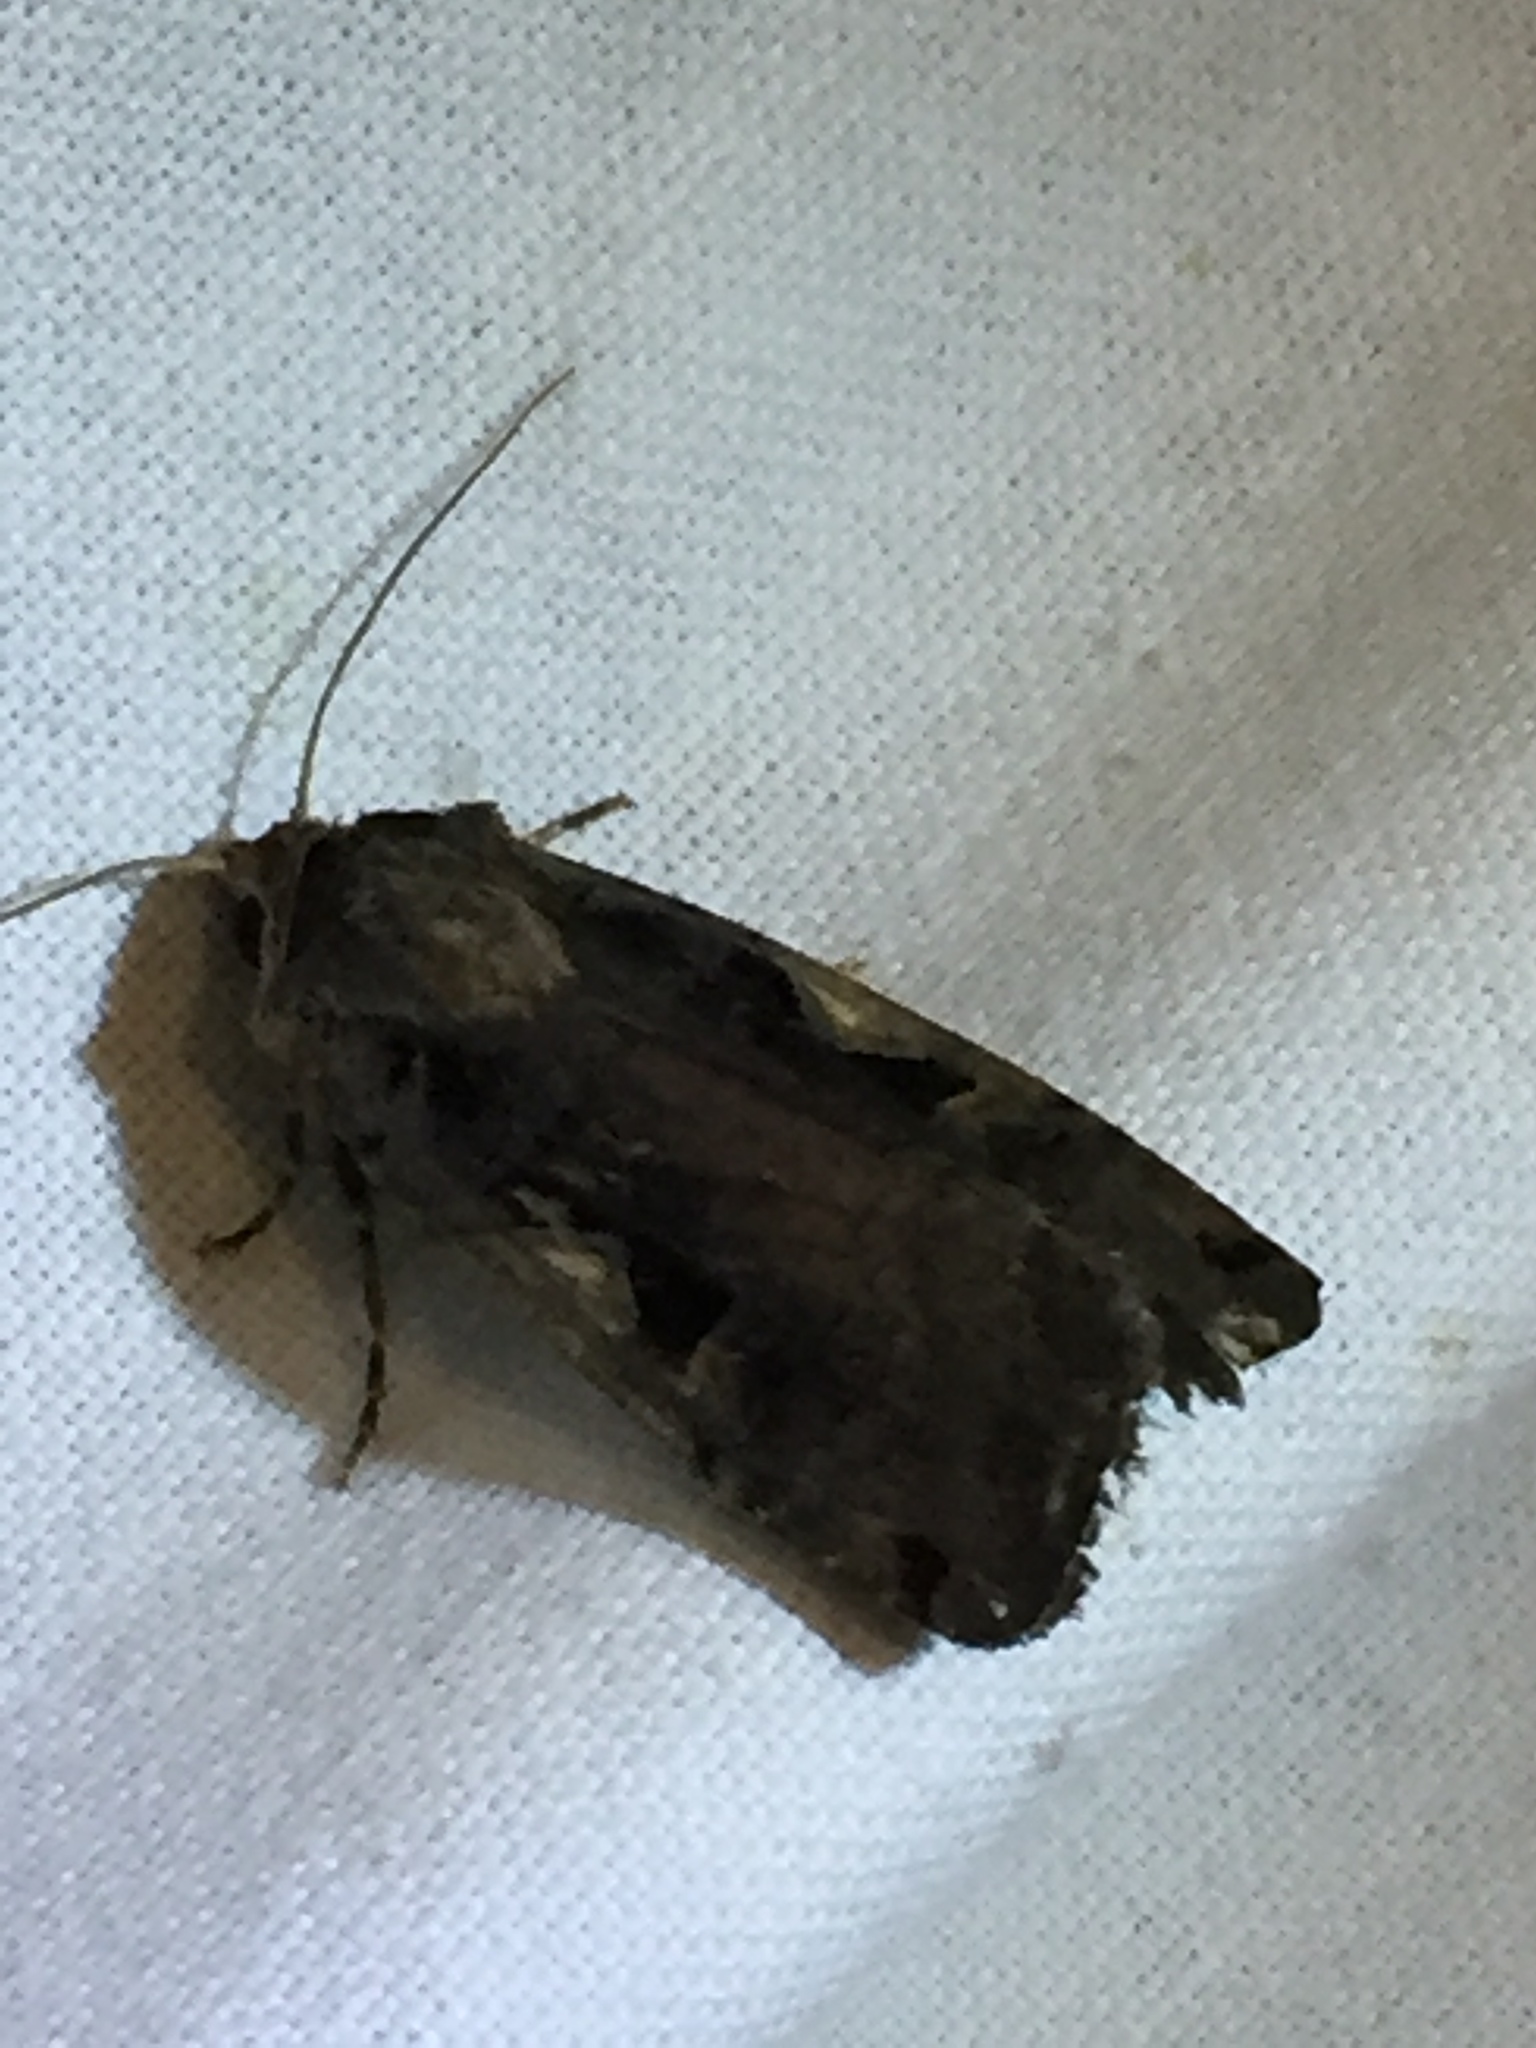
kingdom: Animalia
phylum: Arthropoda
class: Insecta
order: Lepidoptera
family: Noctuidae
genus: Xestia
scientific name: Xestia c-nigrum
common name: Setaceous hebrew character
